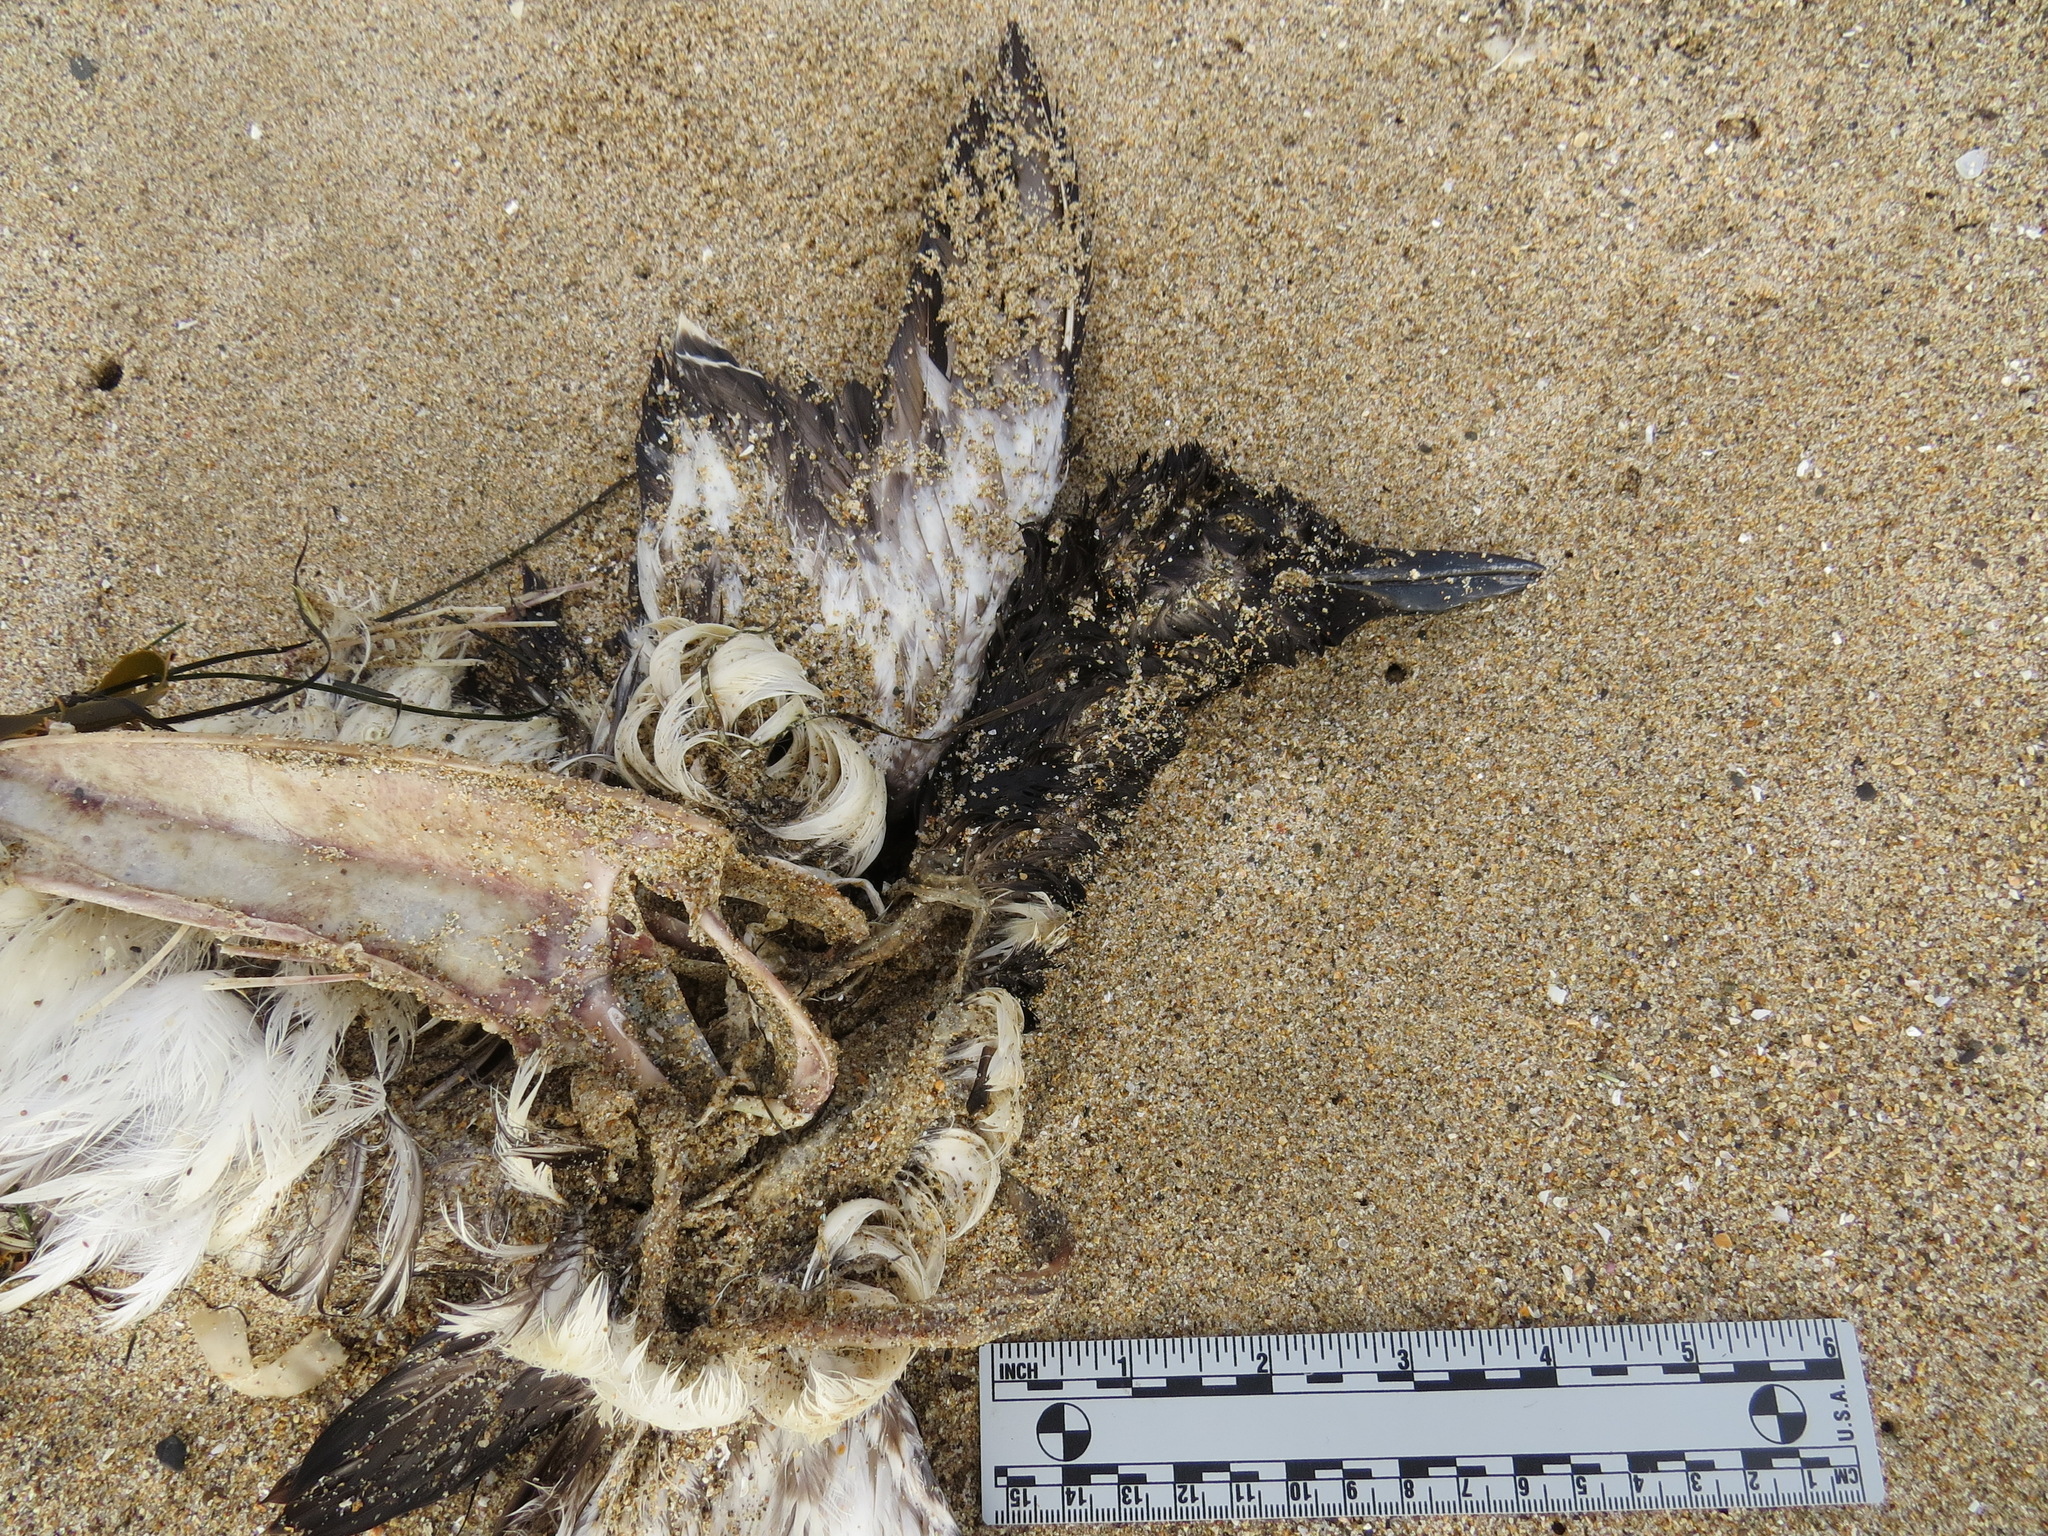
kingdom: Animalia
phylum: Chordata
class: Aves
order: Charadriiformes
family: Alcidae
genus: Uria
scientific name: Uria aalge
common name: Common murre
